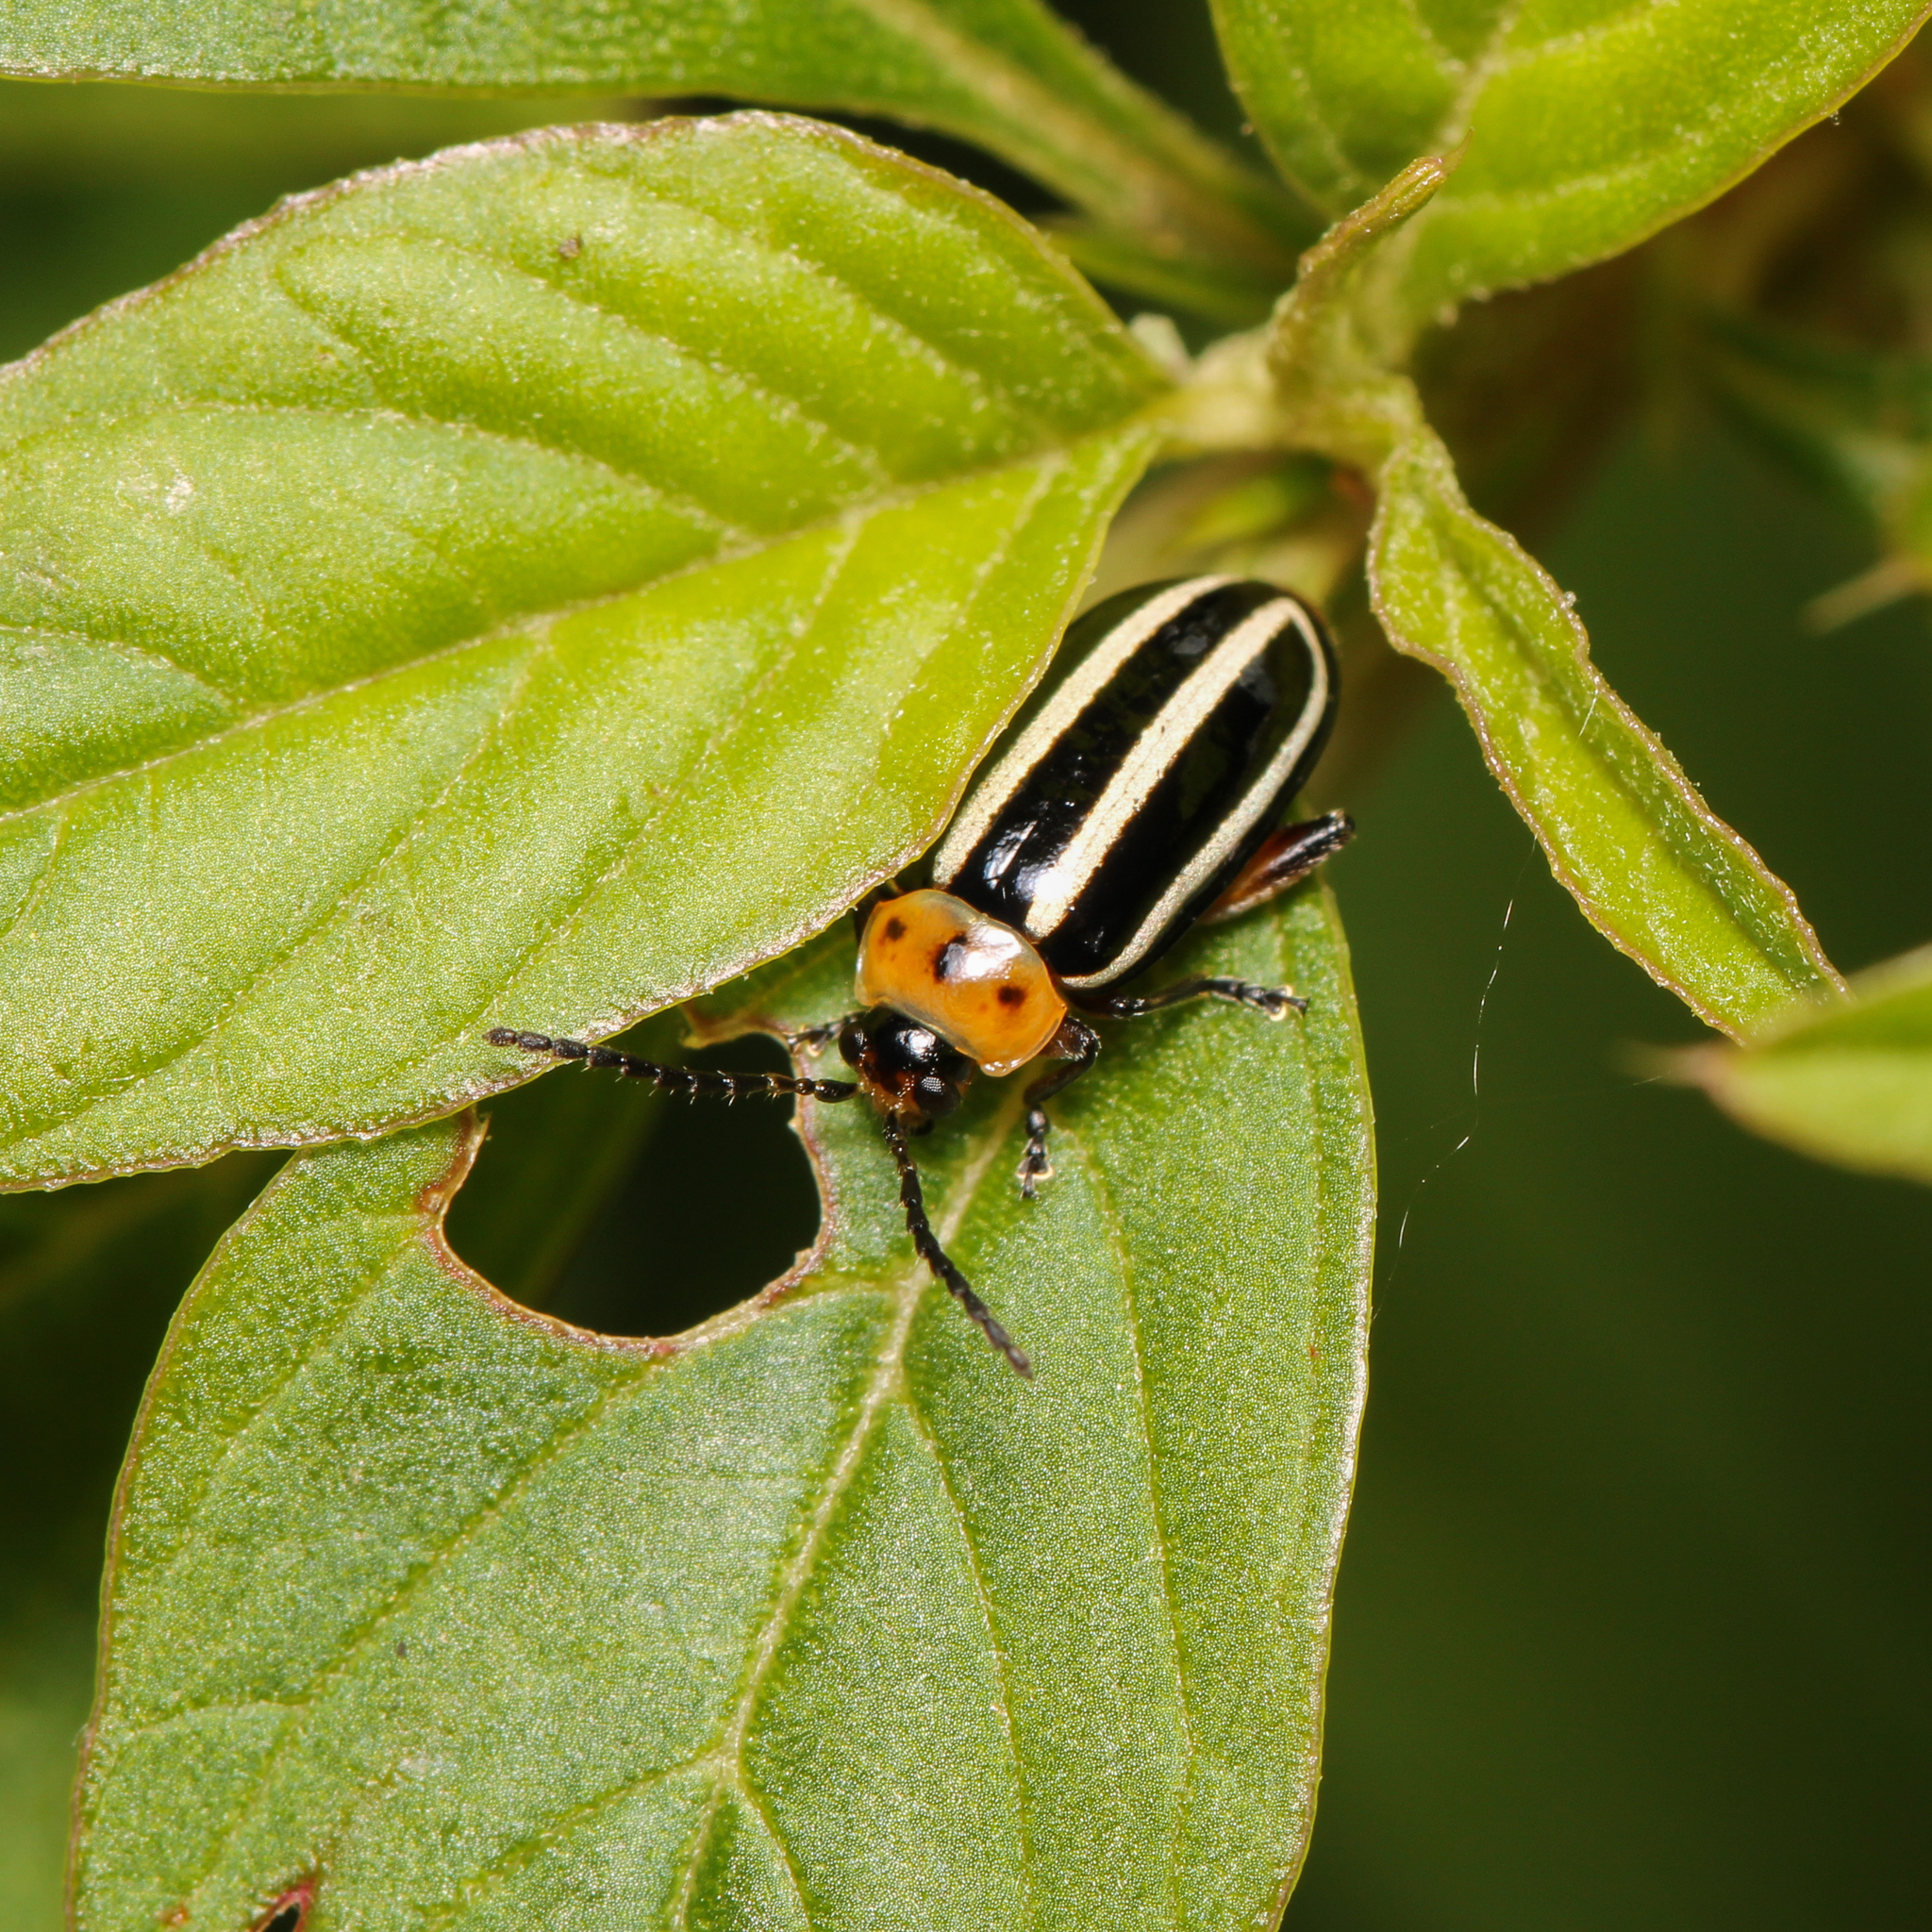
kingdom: Animalia
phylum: Arthropoda
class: Insecta
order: Coleoptera
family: Chrysomelidae
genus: Disonycha
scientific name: Disonycha glabrata
